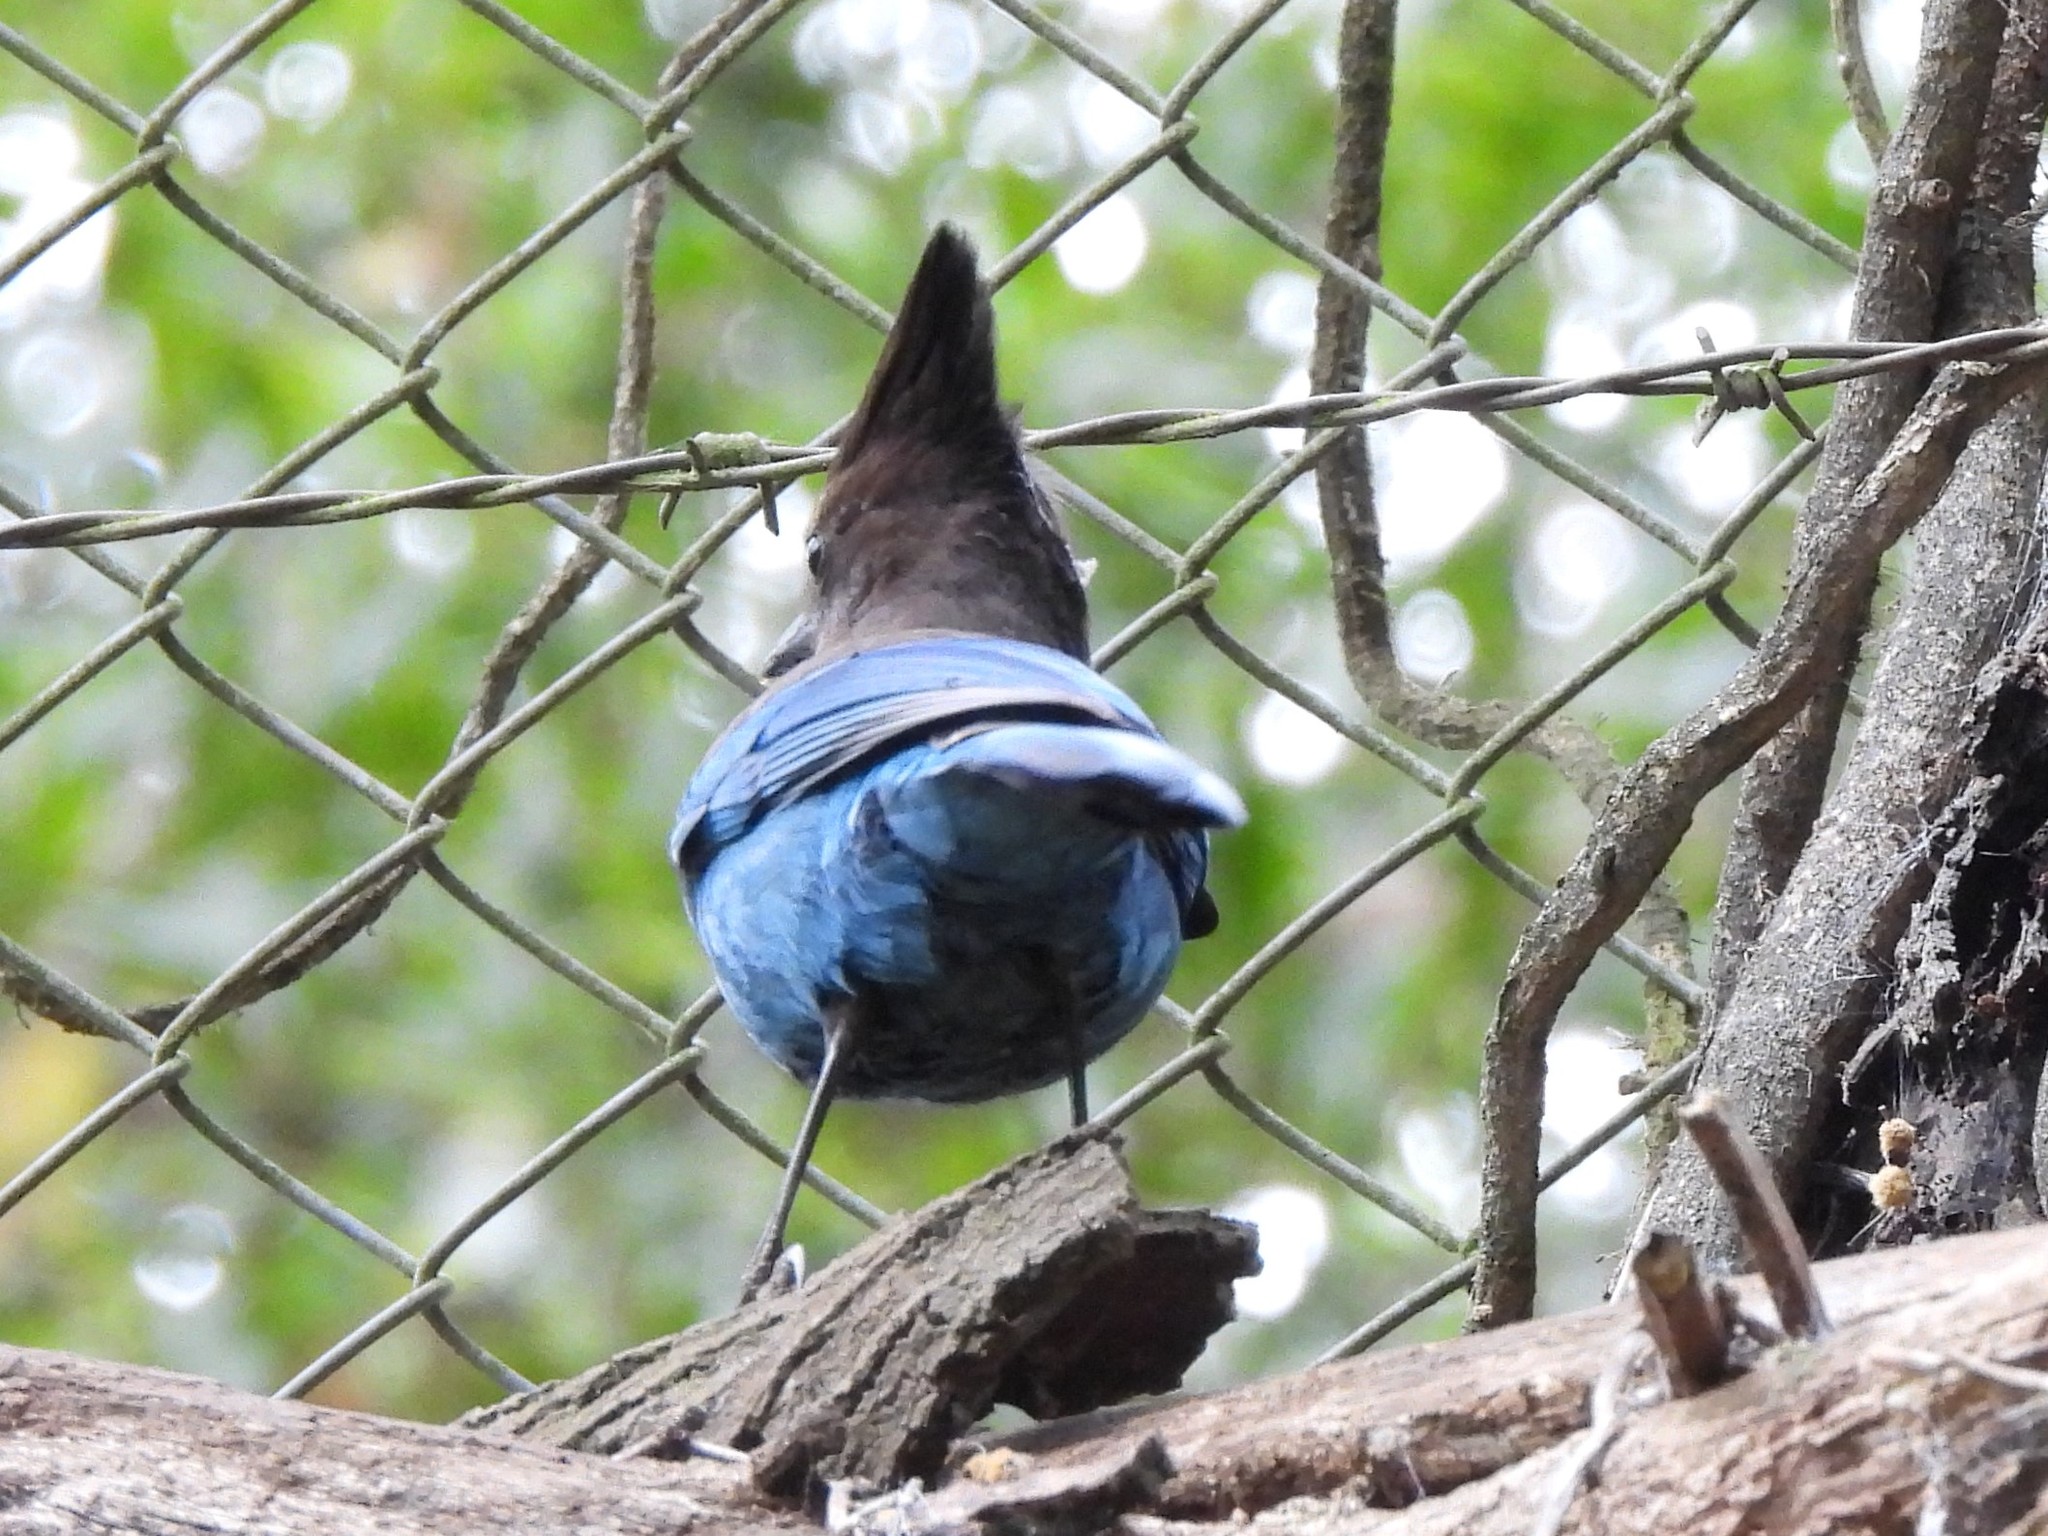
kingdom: Animalia
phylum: Chordata
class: Aves
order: Passeriformes
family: Corvidae
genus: Cyanocitta
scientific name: Cyanocitta stelleri
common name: Steller's jay
